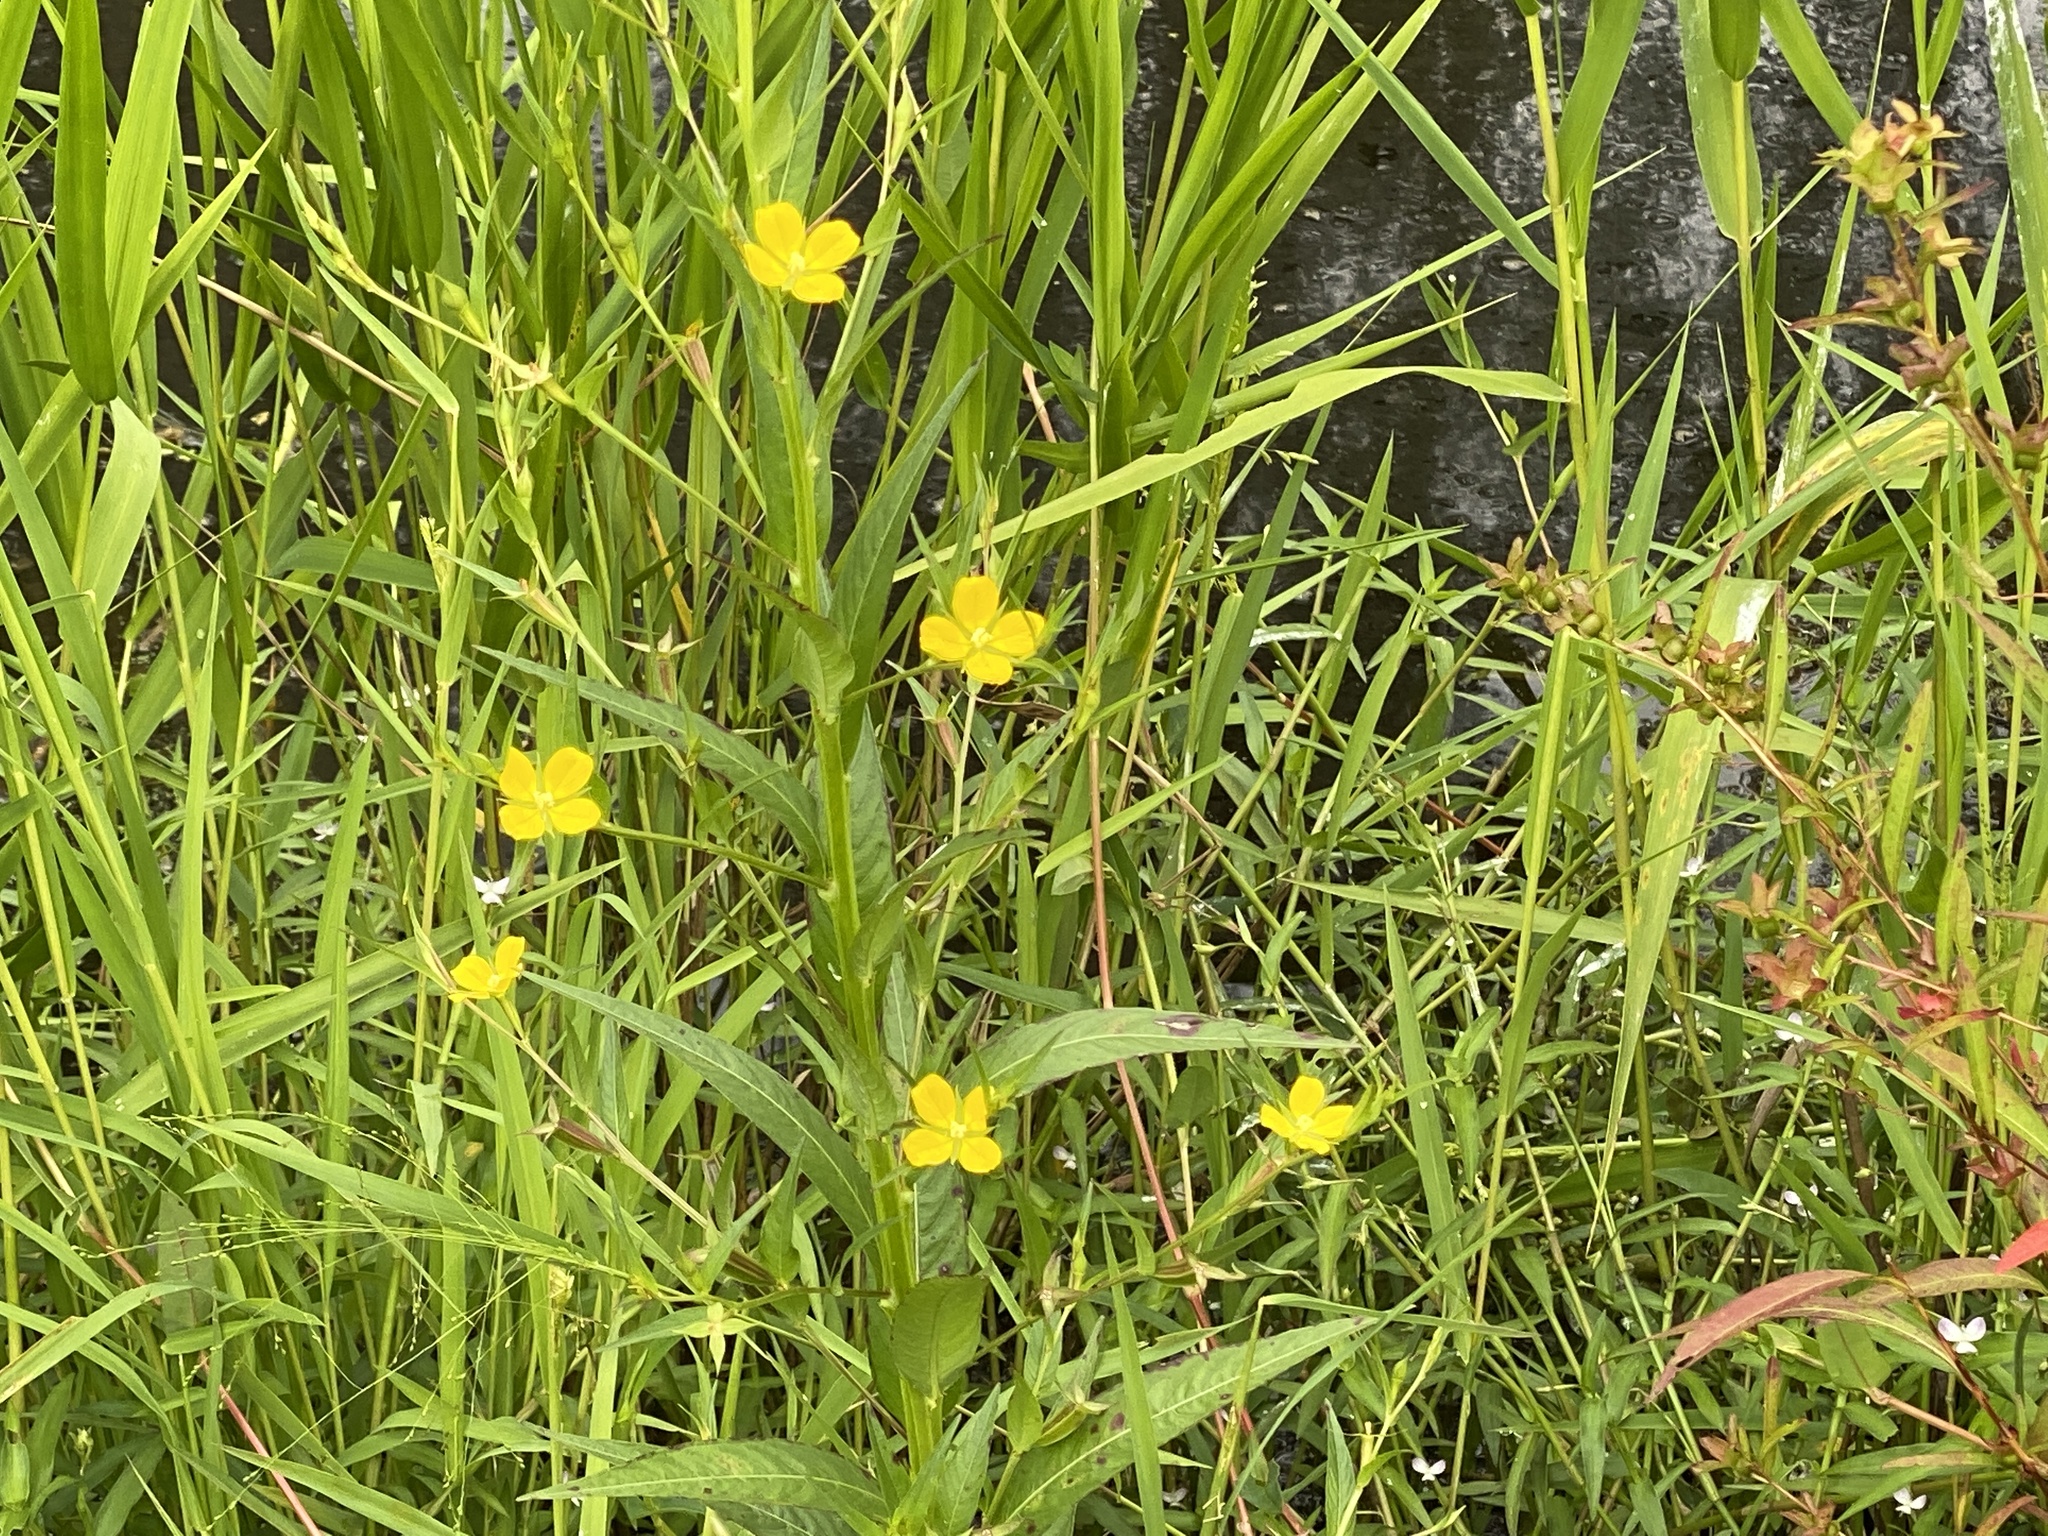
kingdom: Plantae
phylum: Tracheophyta
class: Magnoliopsida
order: Myrtales
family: Onagraceae
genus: Ludwigia
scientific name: Ludwigia decurrens
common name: Winged water-primrose
